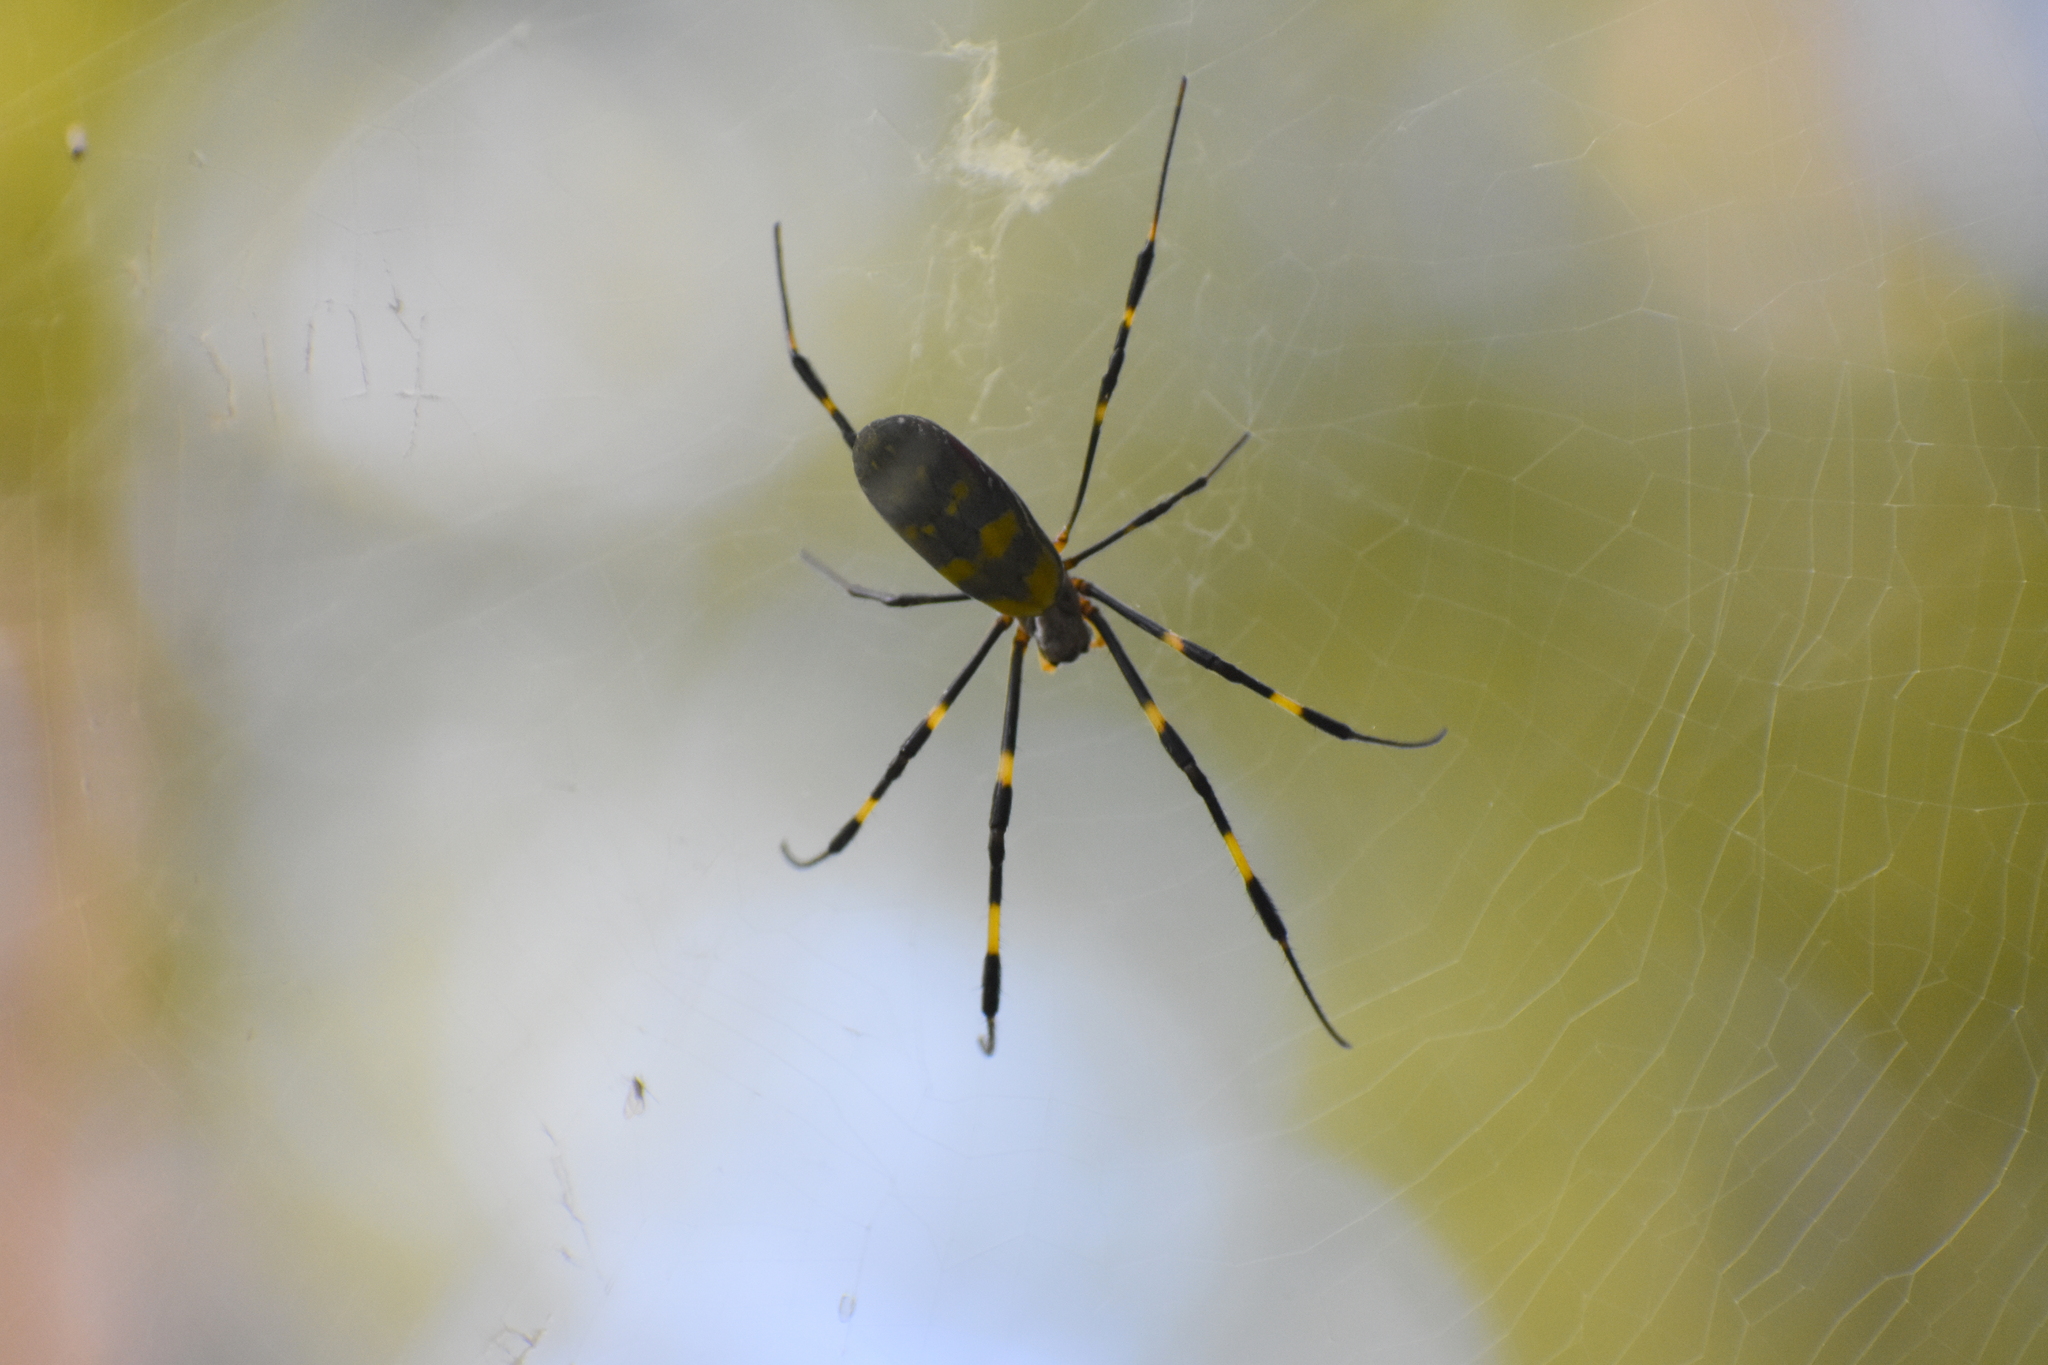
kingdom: Animalia
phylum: Arthropoda
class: Arachnida
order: Araneae
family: Araneidae
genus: Trichonephila
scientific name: Trichonephila clavata
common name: Jorō spider
